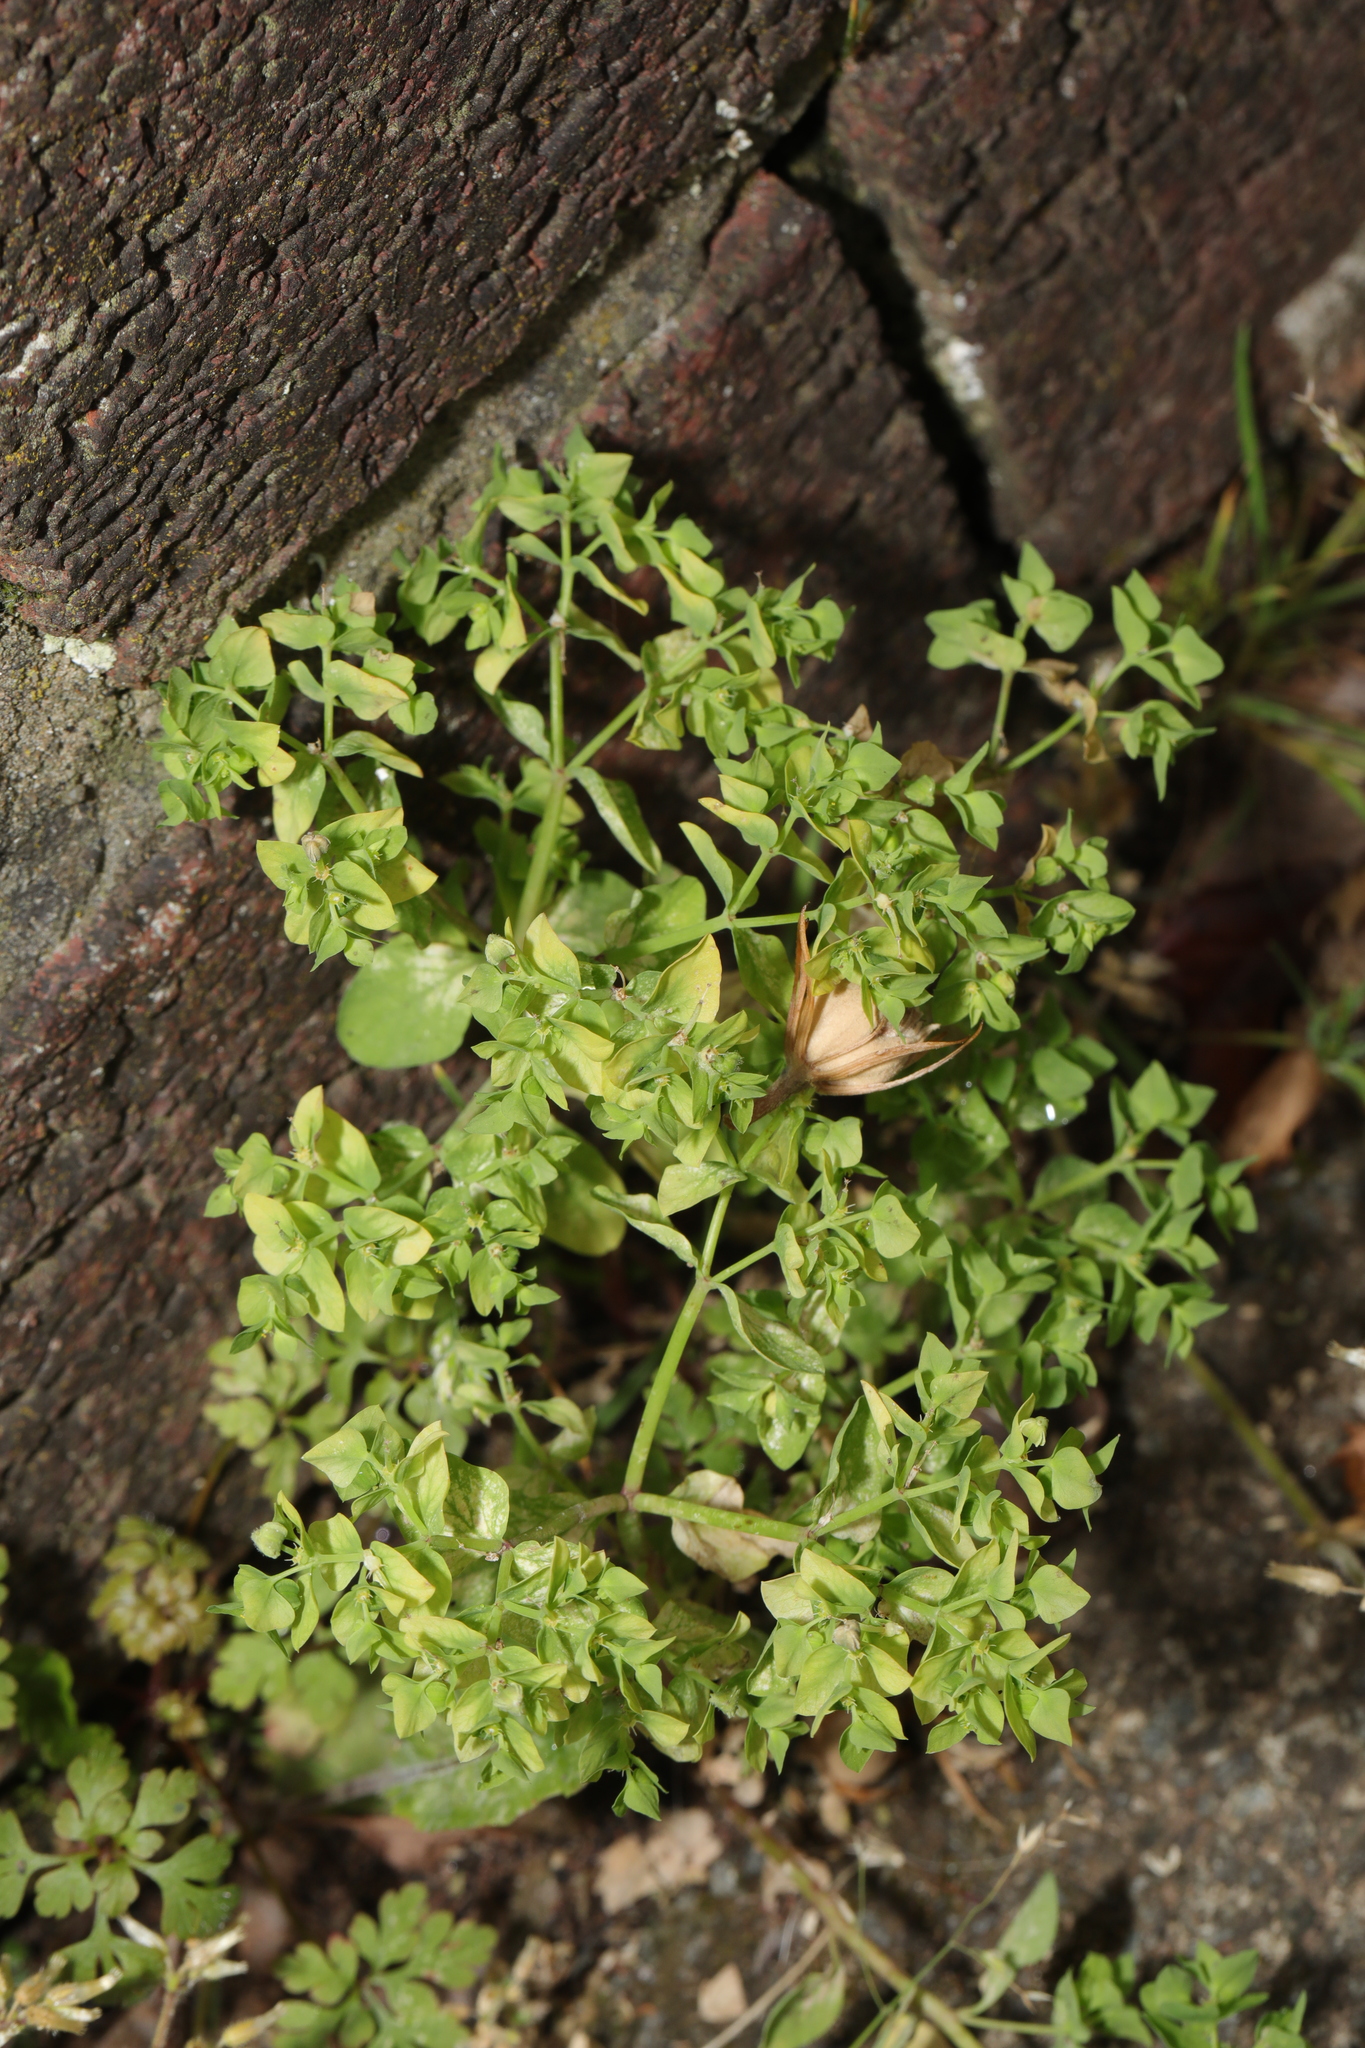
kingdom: Plantae
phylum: Tracheophyta
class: Magnoliopsida
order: Malpighiales
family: Euphorbiaceae
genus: Euphorbia
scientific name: Euphorbia peplus
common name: Petty spurge
